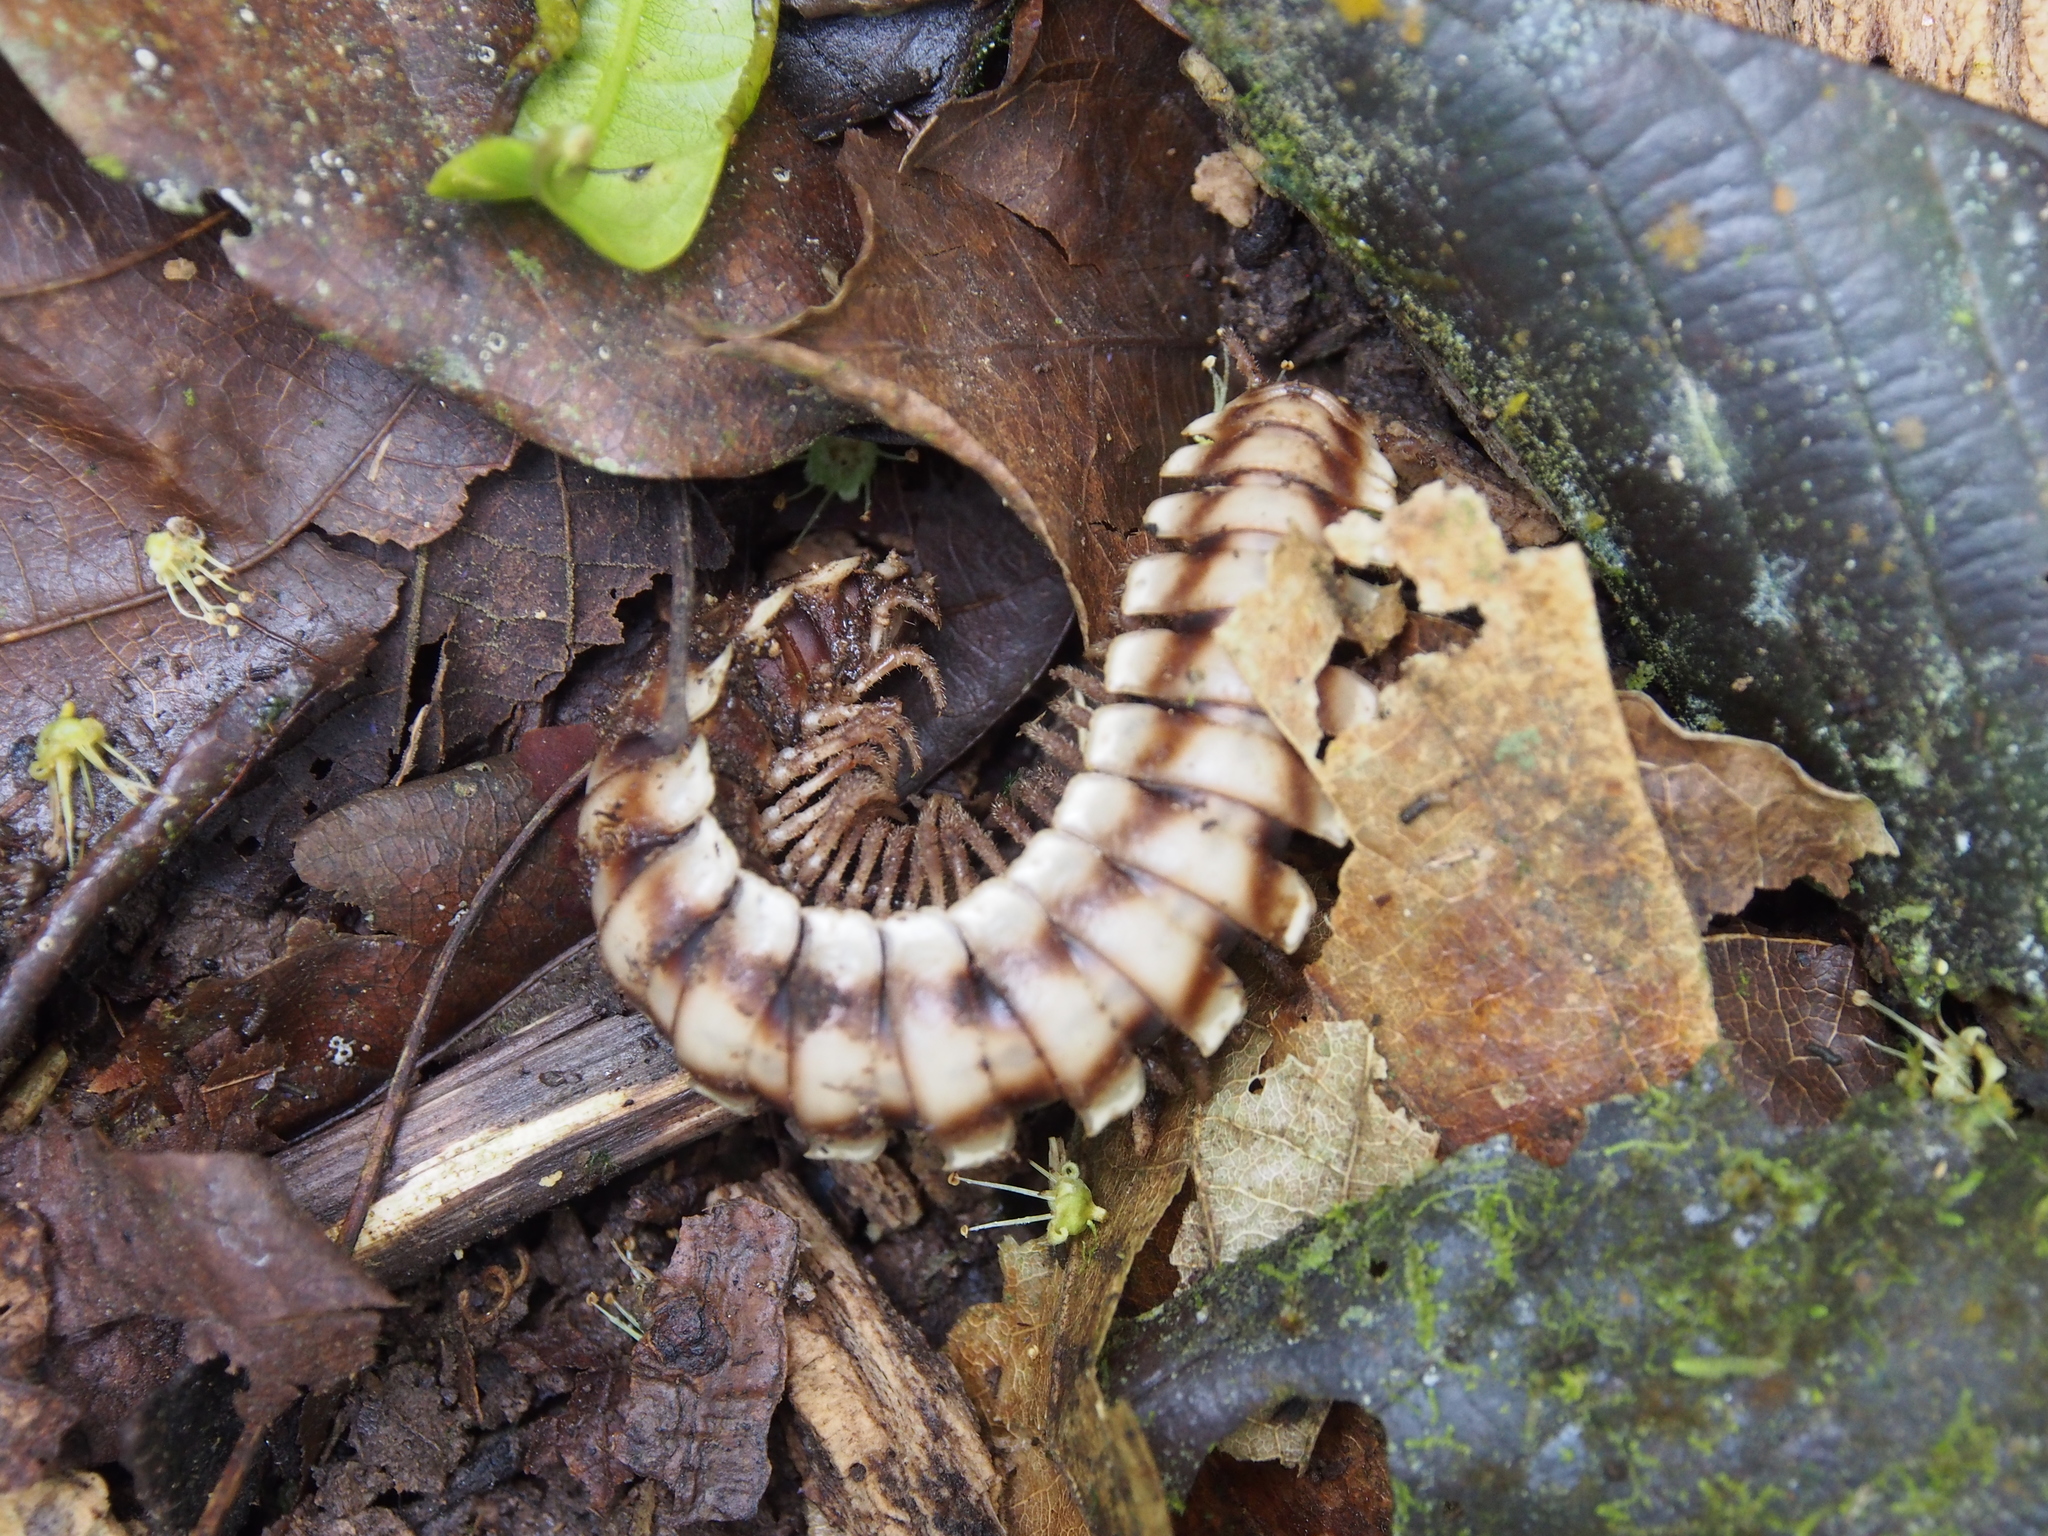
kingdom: Animalia
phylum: Arthropoda
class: Diplopoda
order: Polydesmida
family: Platyrhacidae
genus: Nyssodesmus
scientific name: Nyssodesmus python
